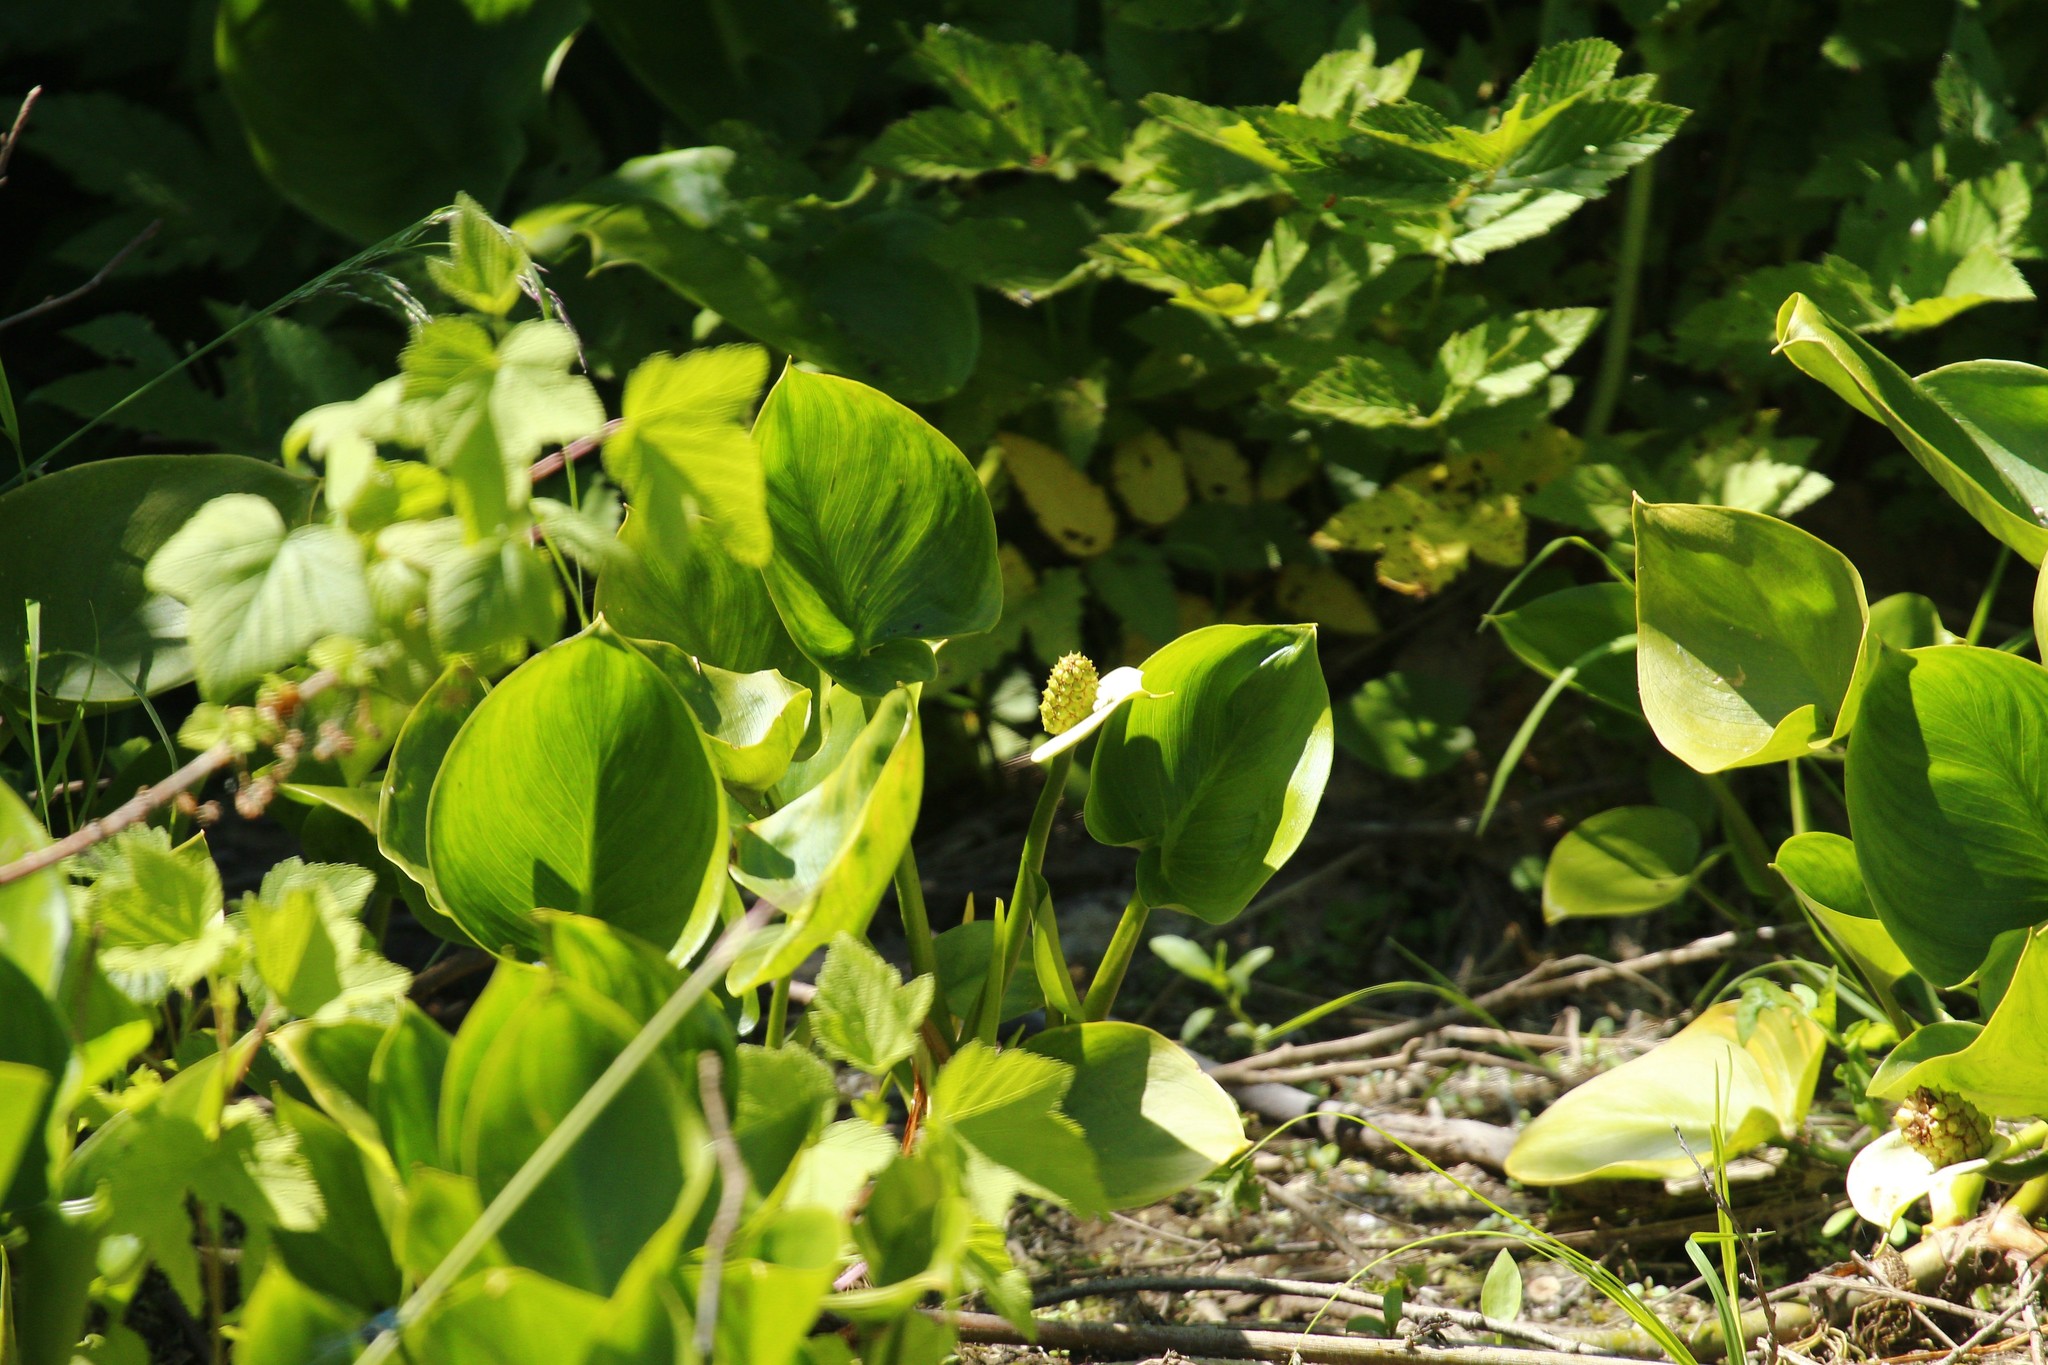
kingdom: Plantae
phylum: Tracheophyta
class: Liliopsida
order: Alismatales
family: Araceae
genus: Calla
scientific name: Calla palustris
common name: Bog arum
